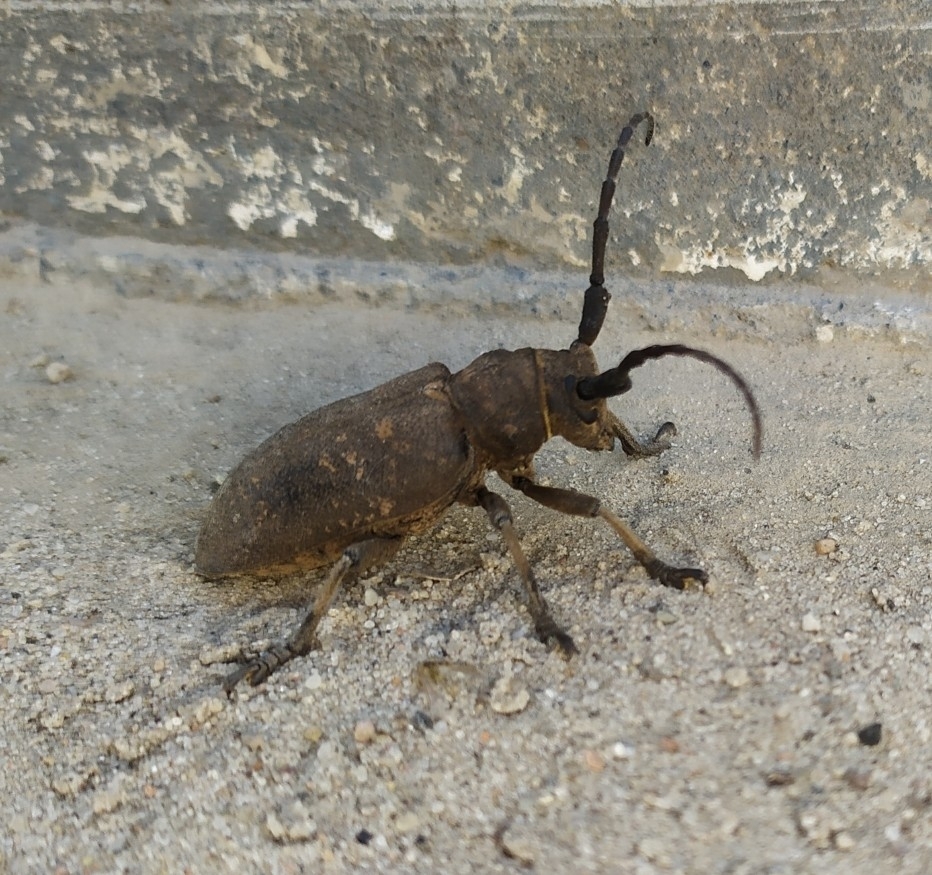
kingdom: Animalia
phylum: Arthropoda
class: Insecta
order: Coleoptera
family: Cerambycidae
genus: Lamia
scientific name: Lamia textor
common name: Weaver beetle
